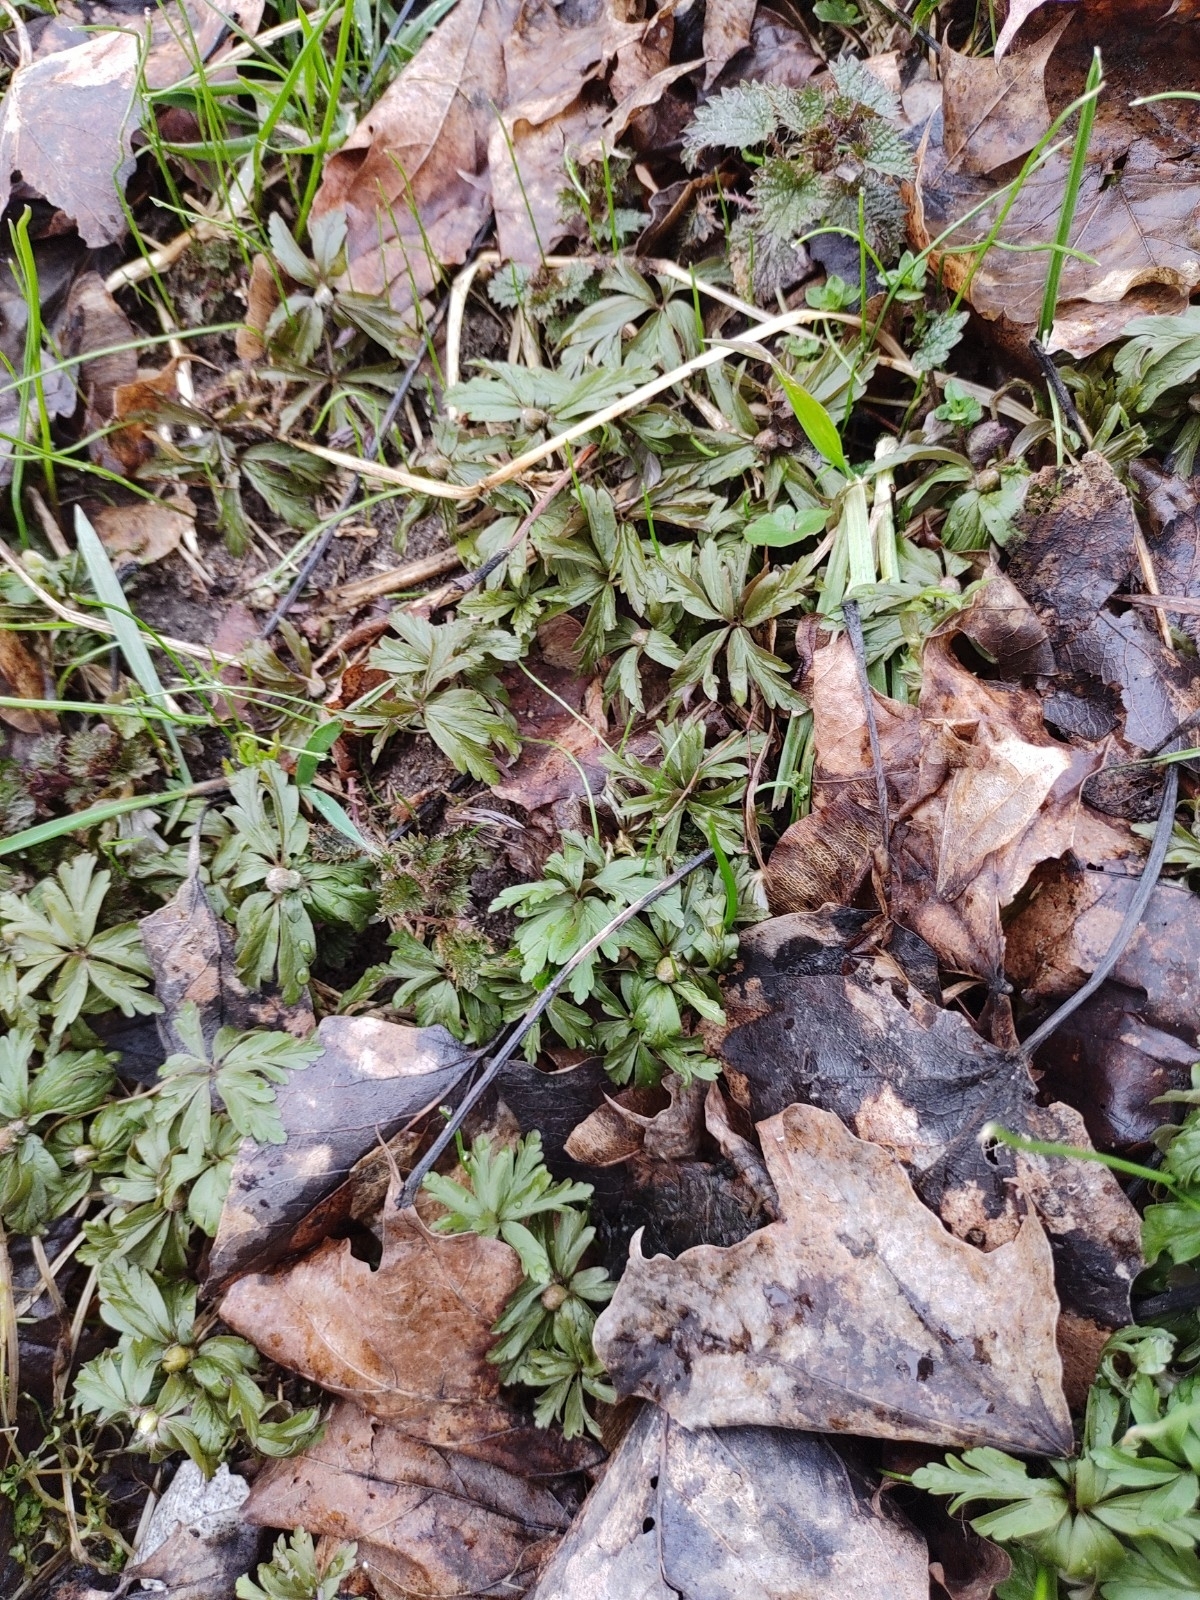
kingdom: Plantae
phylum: Tracheophyta
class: Magnoliopsida
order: Ranunculales
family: Ranunculaceae
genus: Anemone
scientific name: Anemone ranunculoides
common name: Yellow anemone
